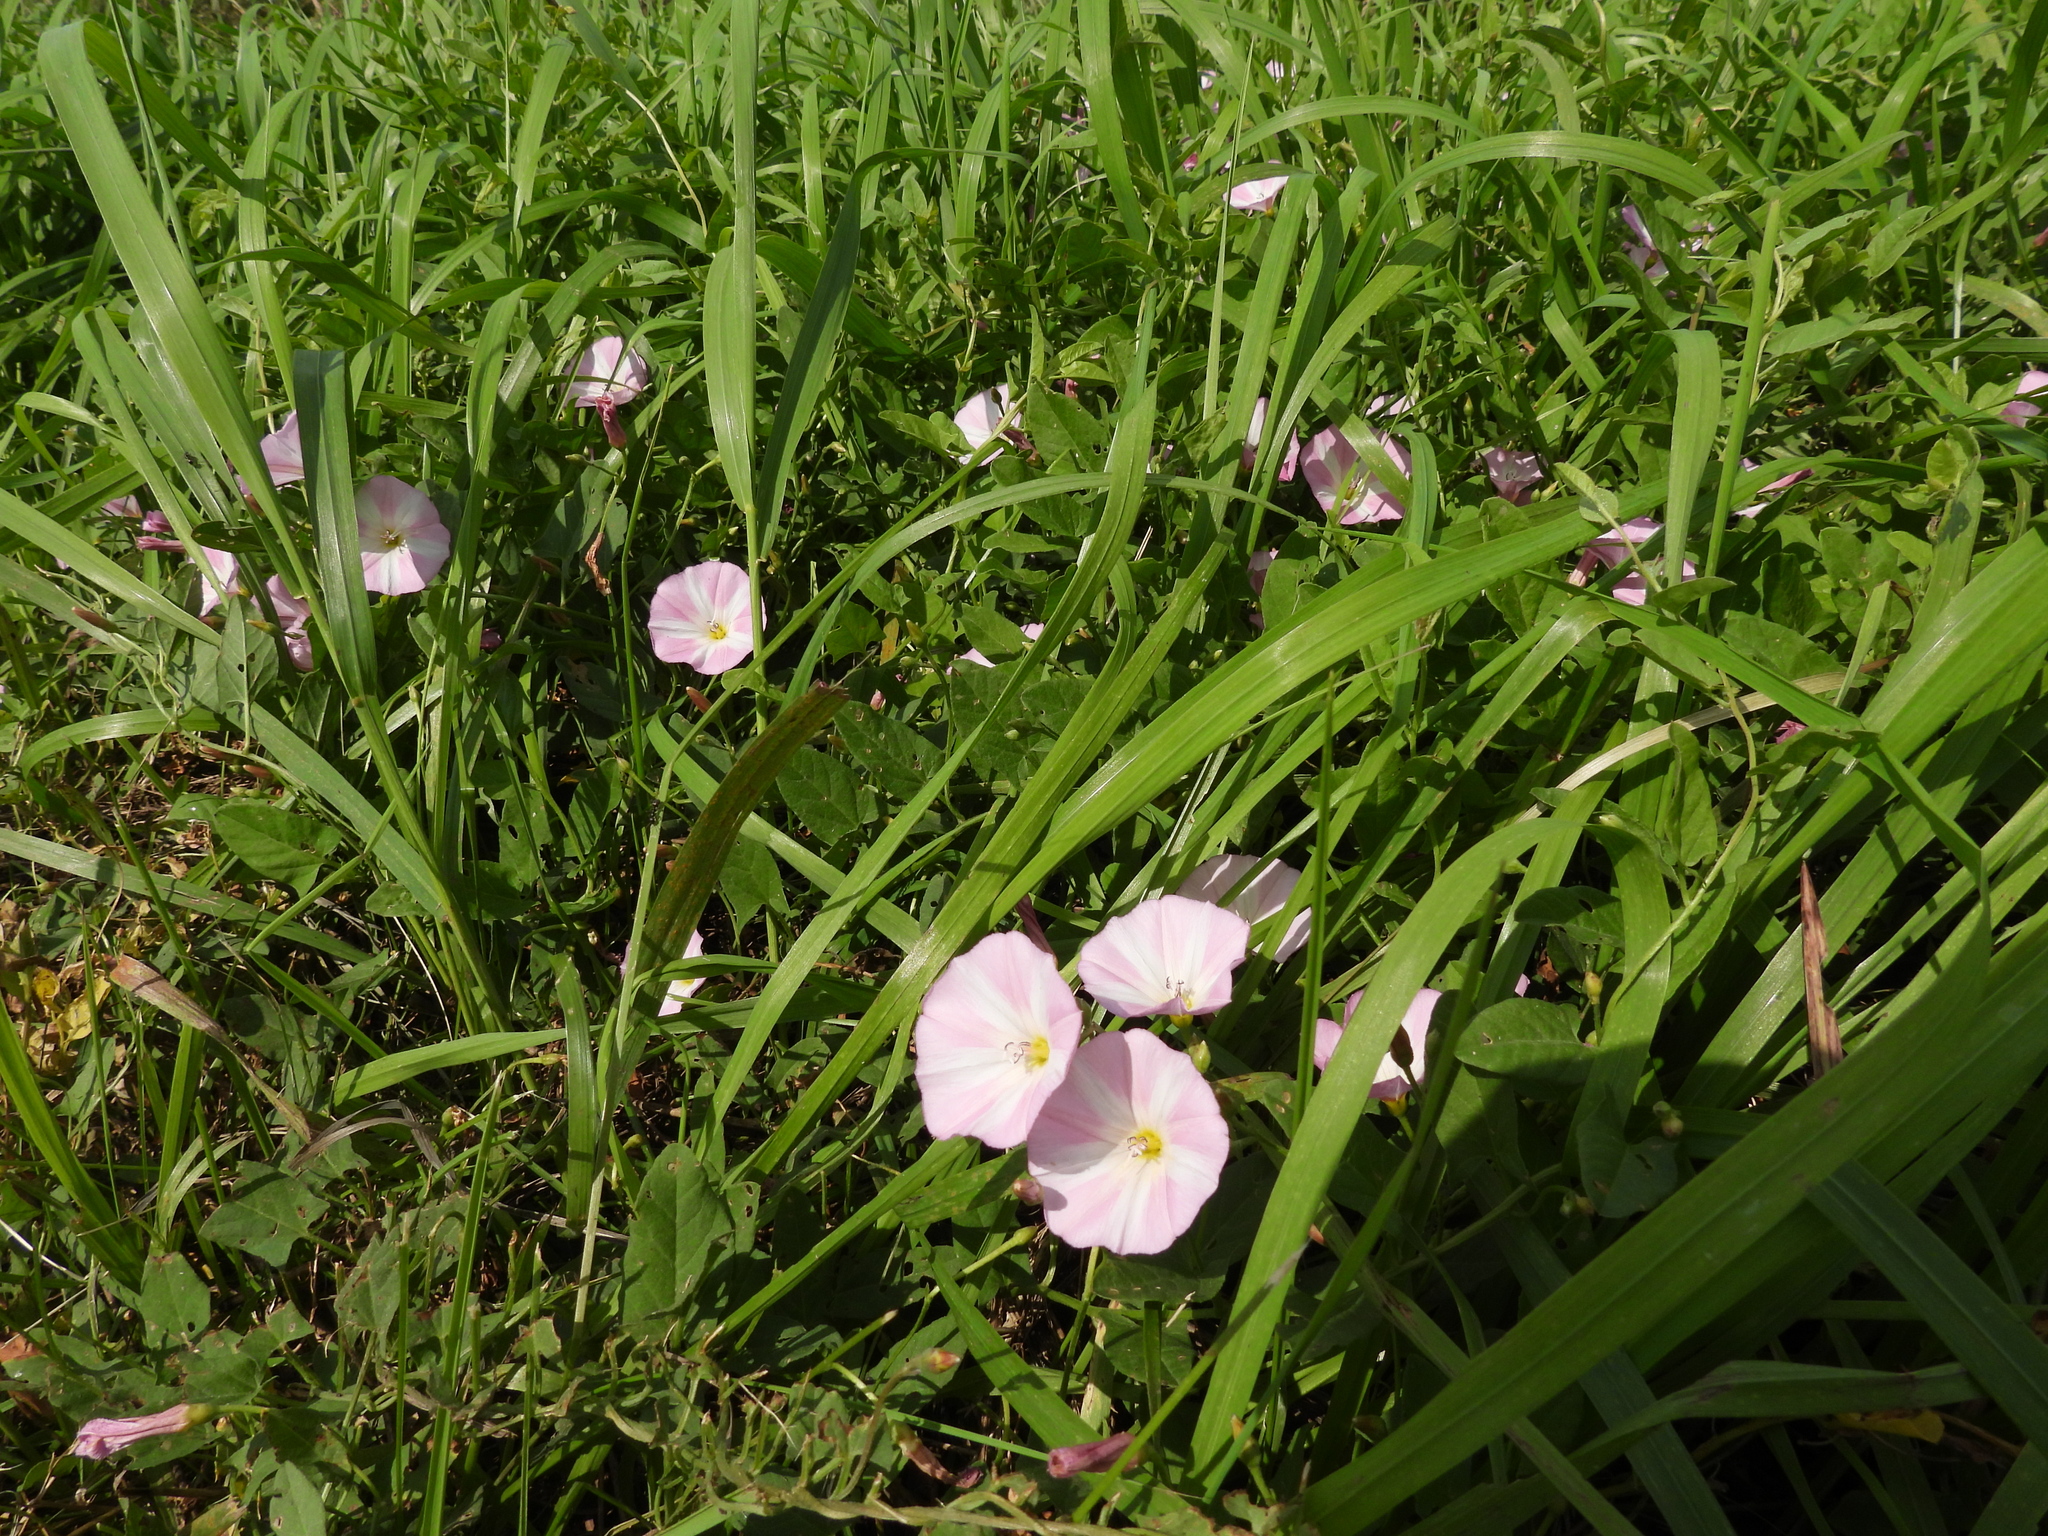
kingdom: Plantae
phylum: Tracheophyta
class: Magnoliopsida
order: Solanales
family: Convolvulaceae
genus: Convolvulus
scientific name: Convolvulus arvensis
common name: Field bindweed
